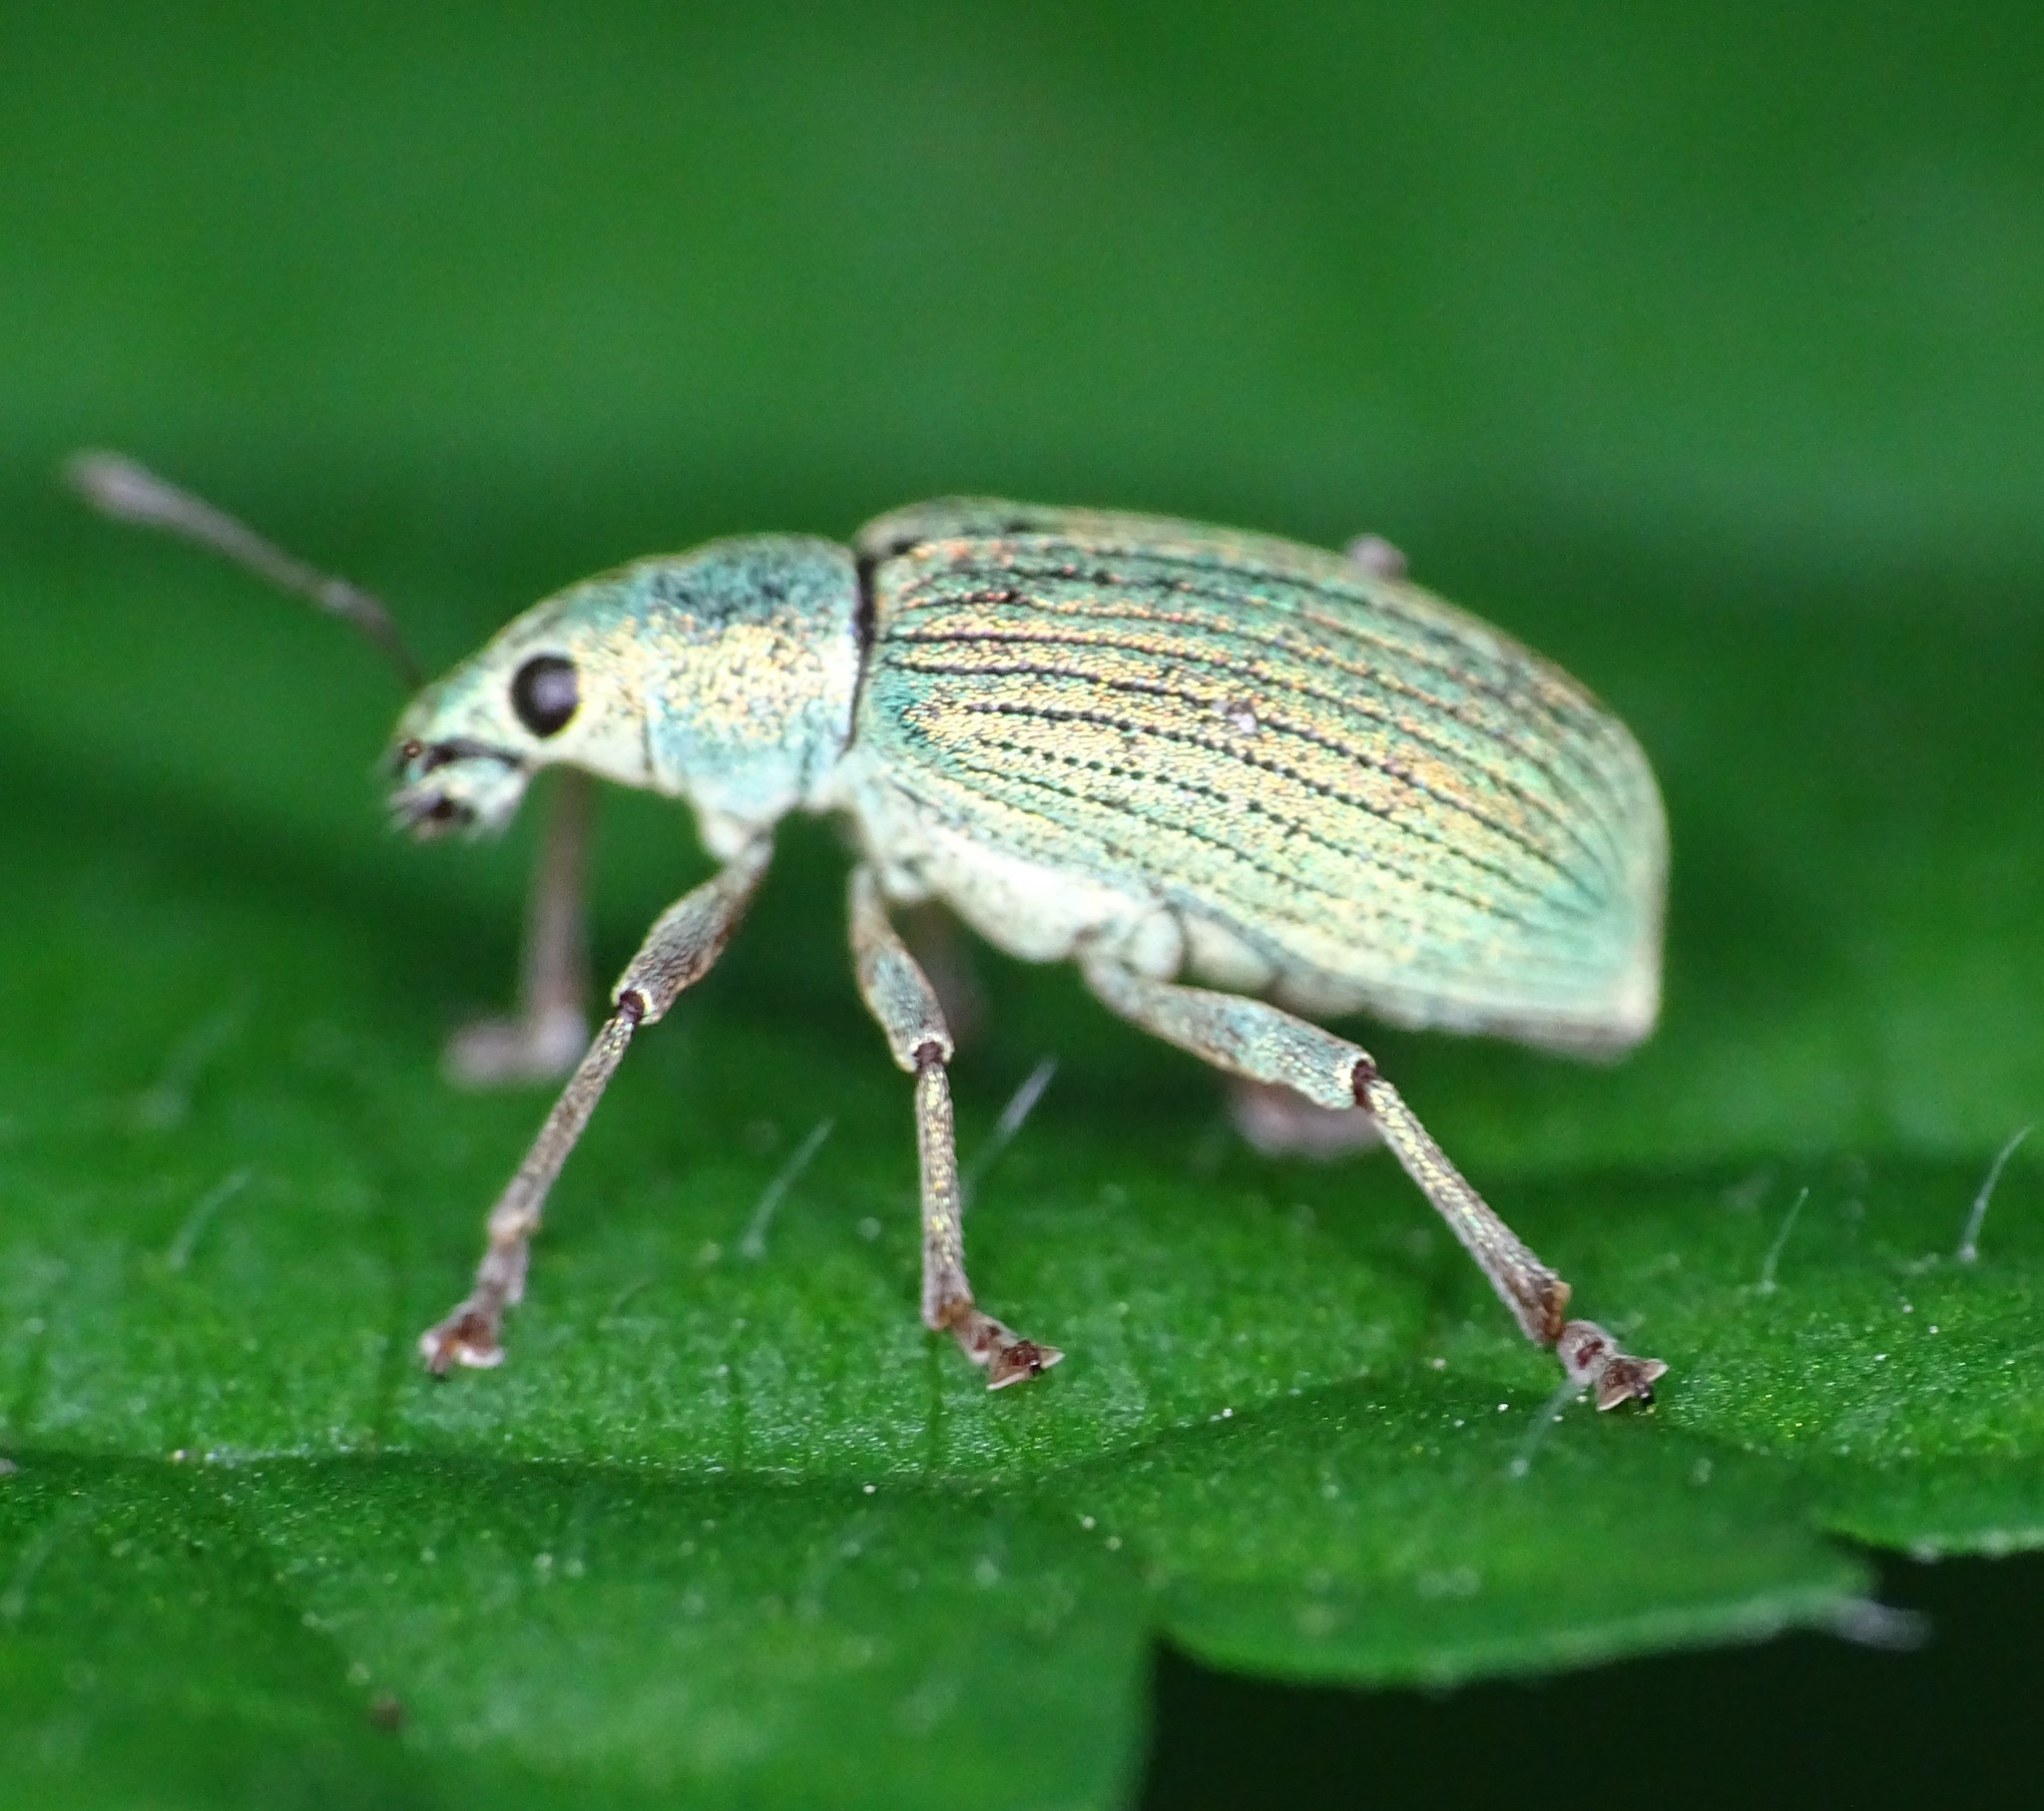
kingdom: Animalia
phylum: Arthropoda
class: Insecta
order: Coleoptera
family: Curculionidae
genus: Polydrusus
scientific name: Polydrusus formosus
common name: Weevil
